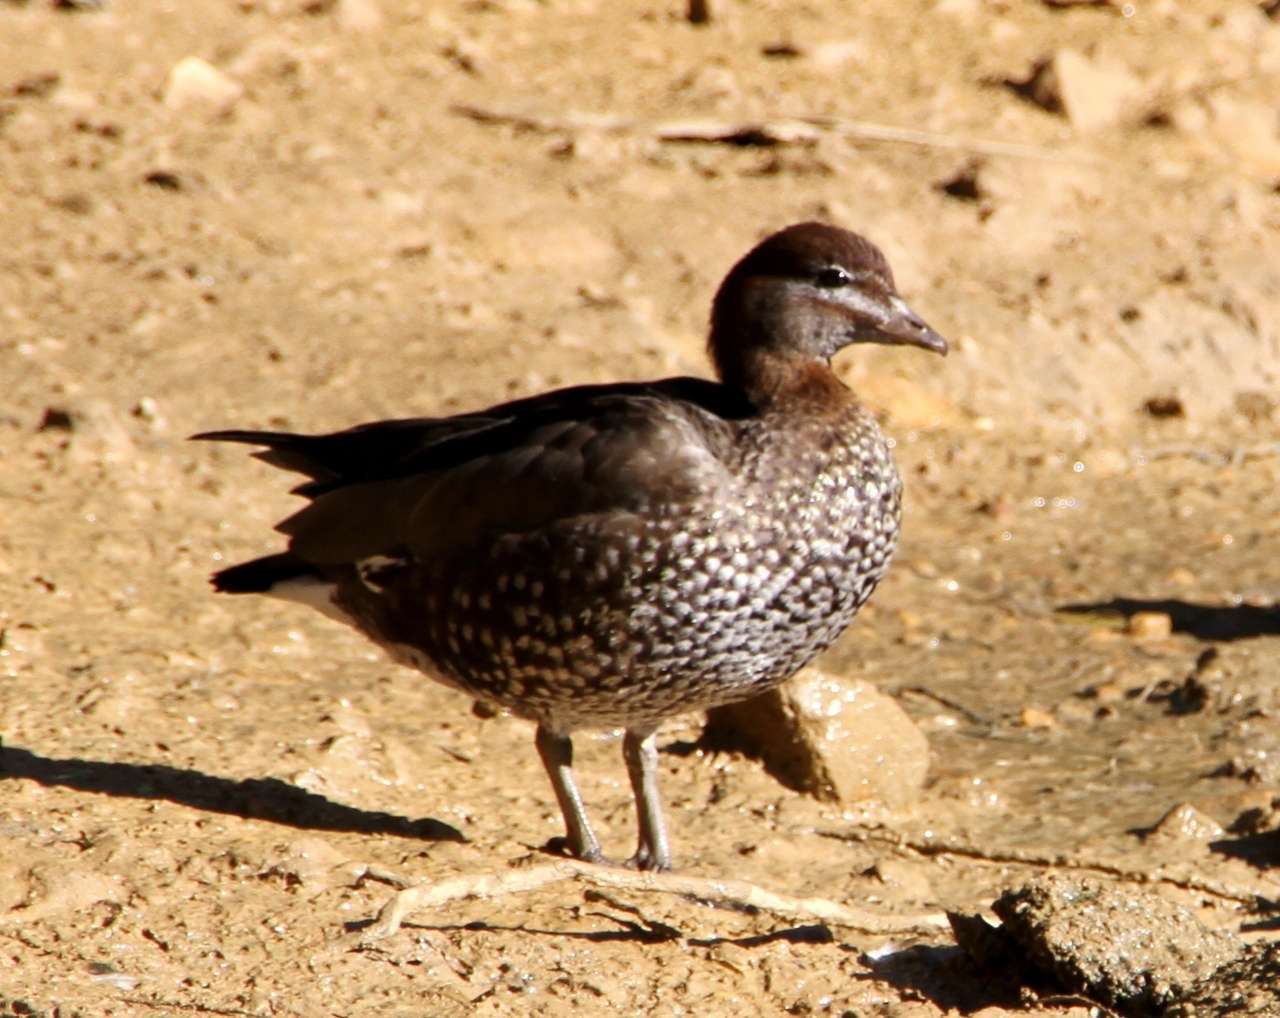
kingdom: Animalia
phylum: Chordata
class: Aves
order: Anseriformes
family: Anatidae
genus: Chenonetta
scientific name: Chenonetta jubata
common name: Maned duck
